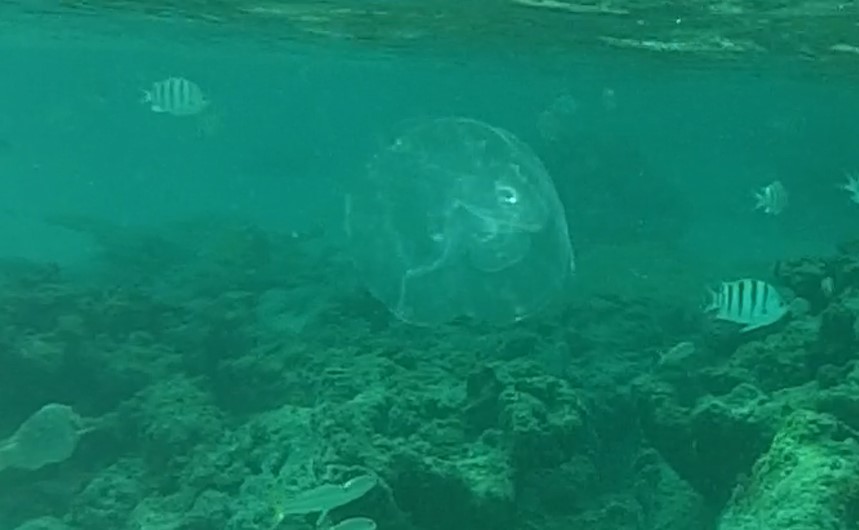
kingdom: Animalia
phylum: Cnidaria
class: Scyphozoa
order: Semaeostomeae
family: Ulmaridae
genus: Aurelia
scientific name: Aurelia marginalis
